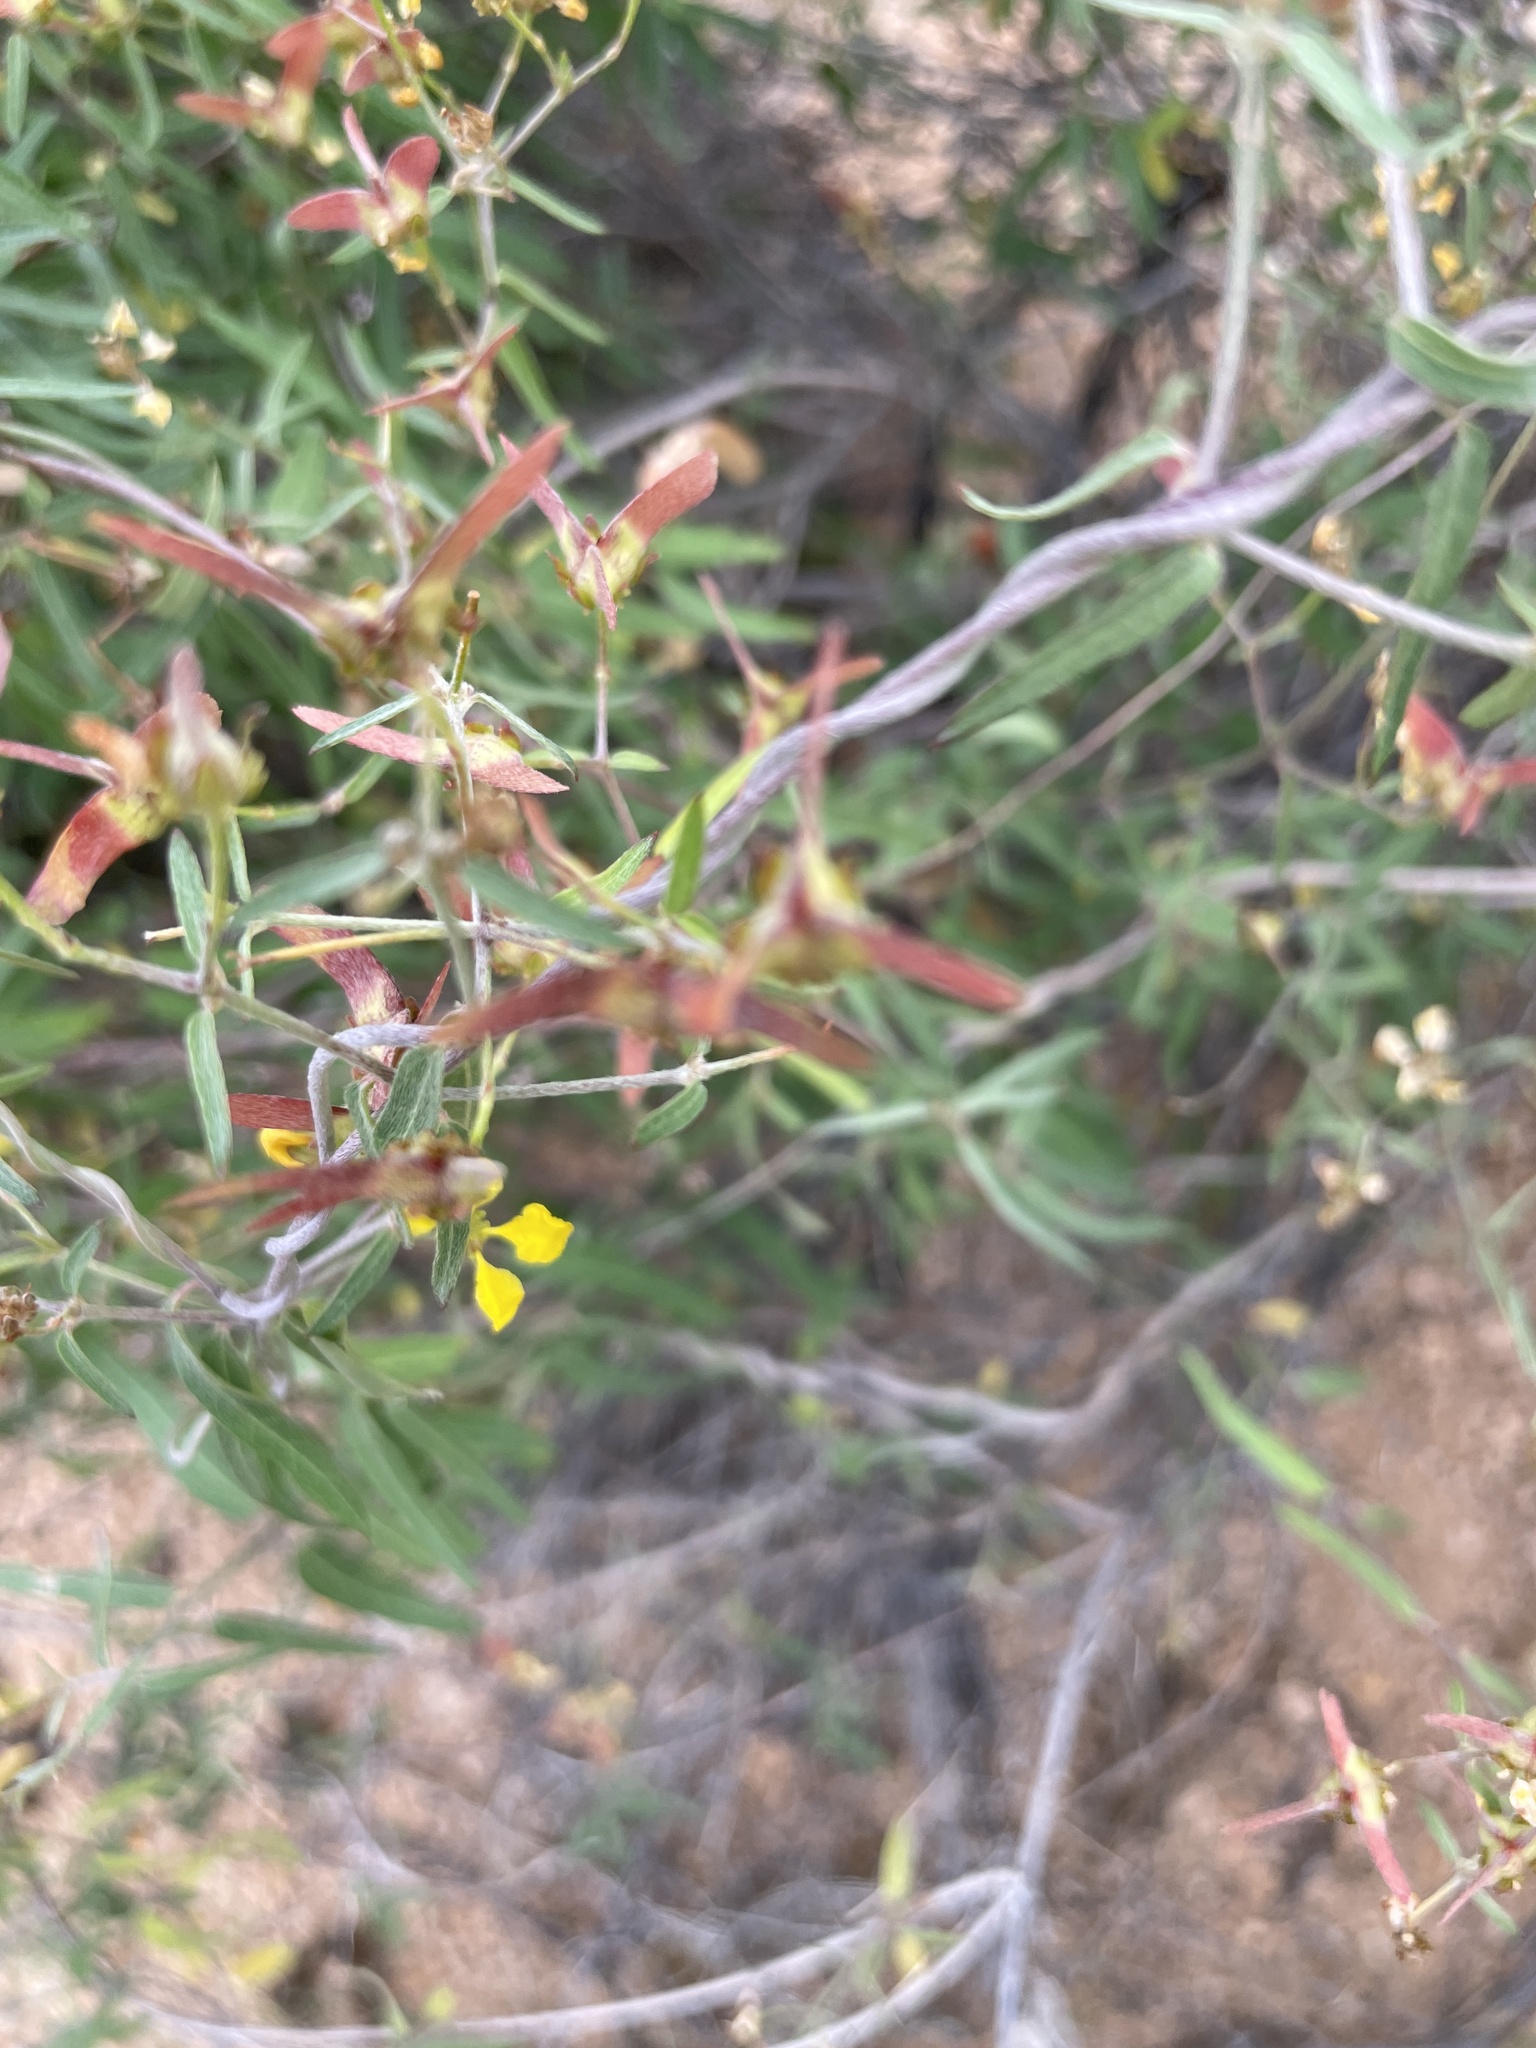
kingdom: Plantae
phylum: Tracheophyta
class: Magnoliopsida
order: Malpighiales
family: Malpighiaceae
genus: Cottsia
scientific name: Cottsia gracilis
